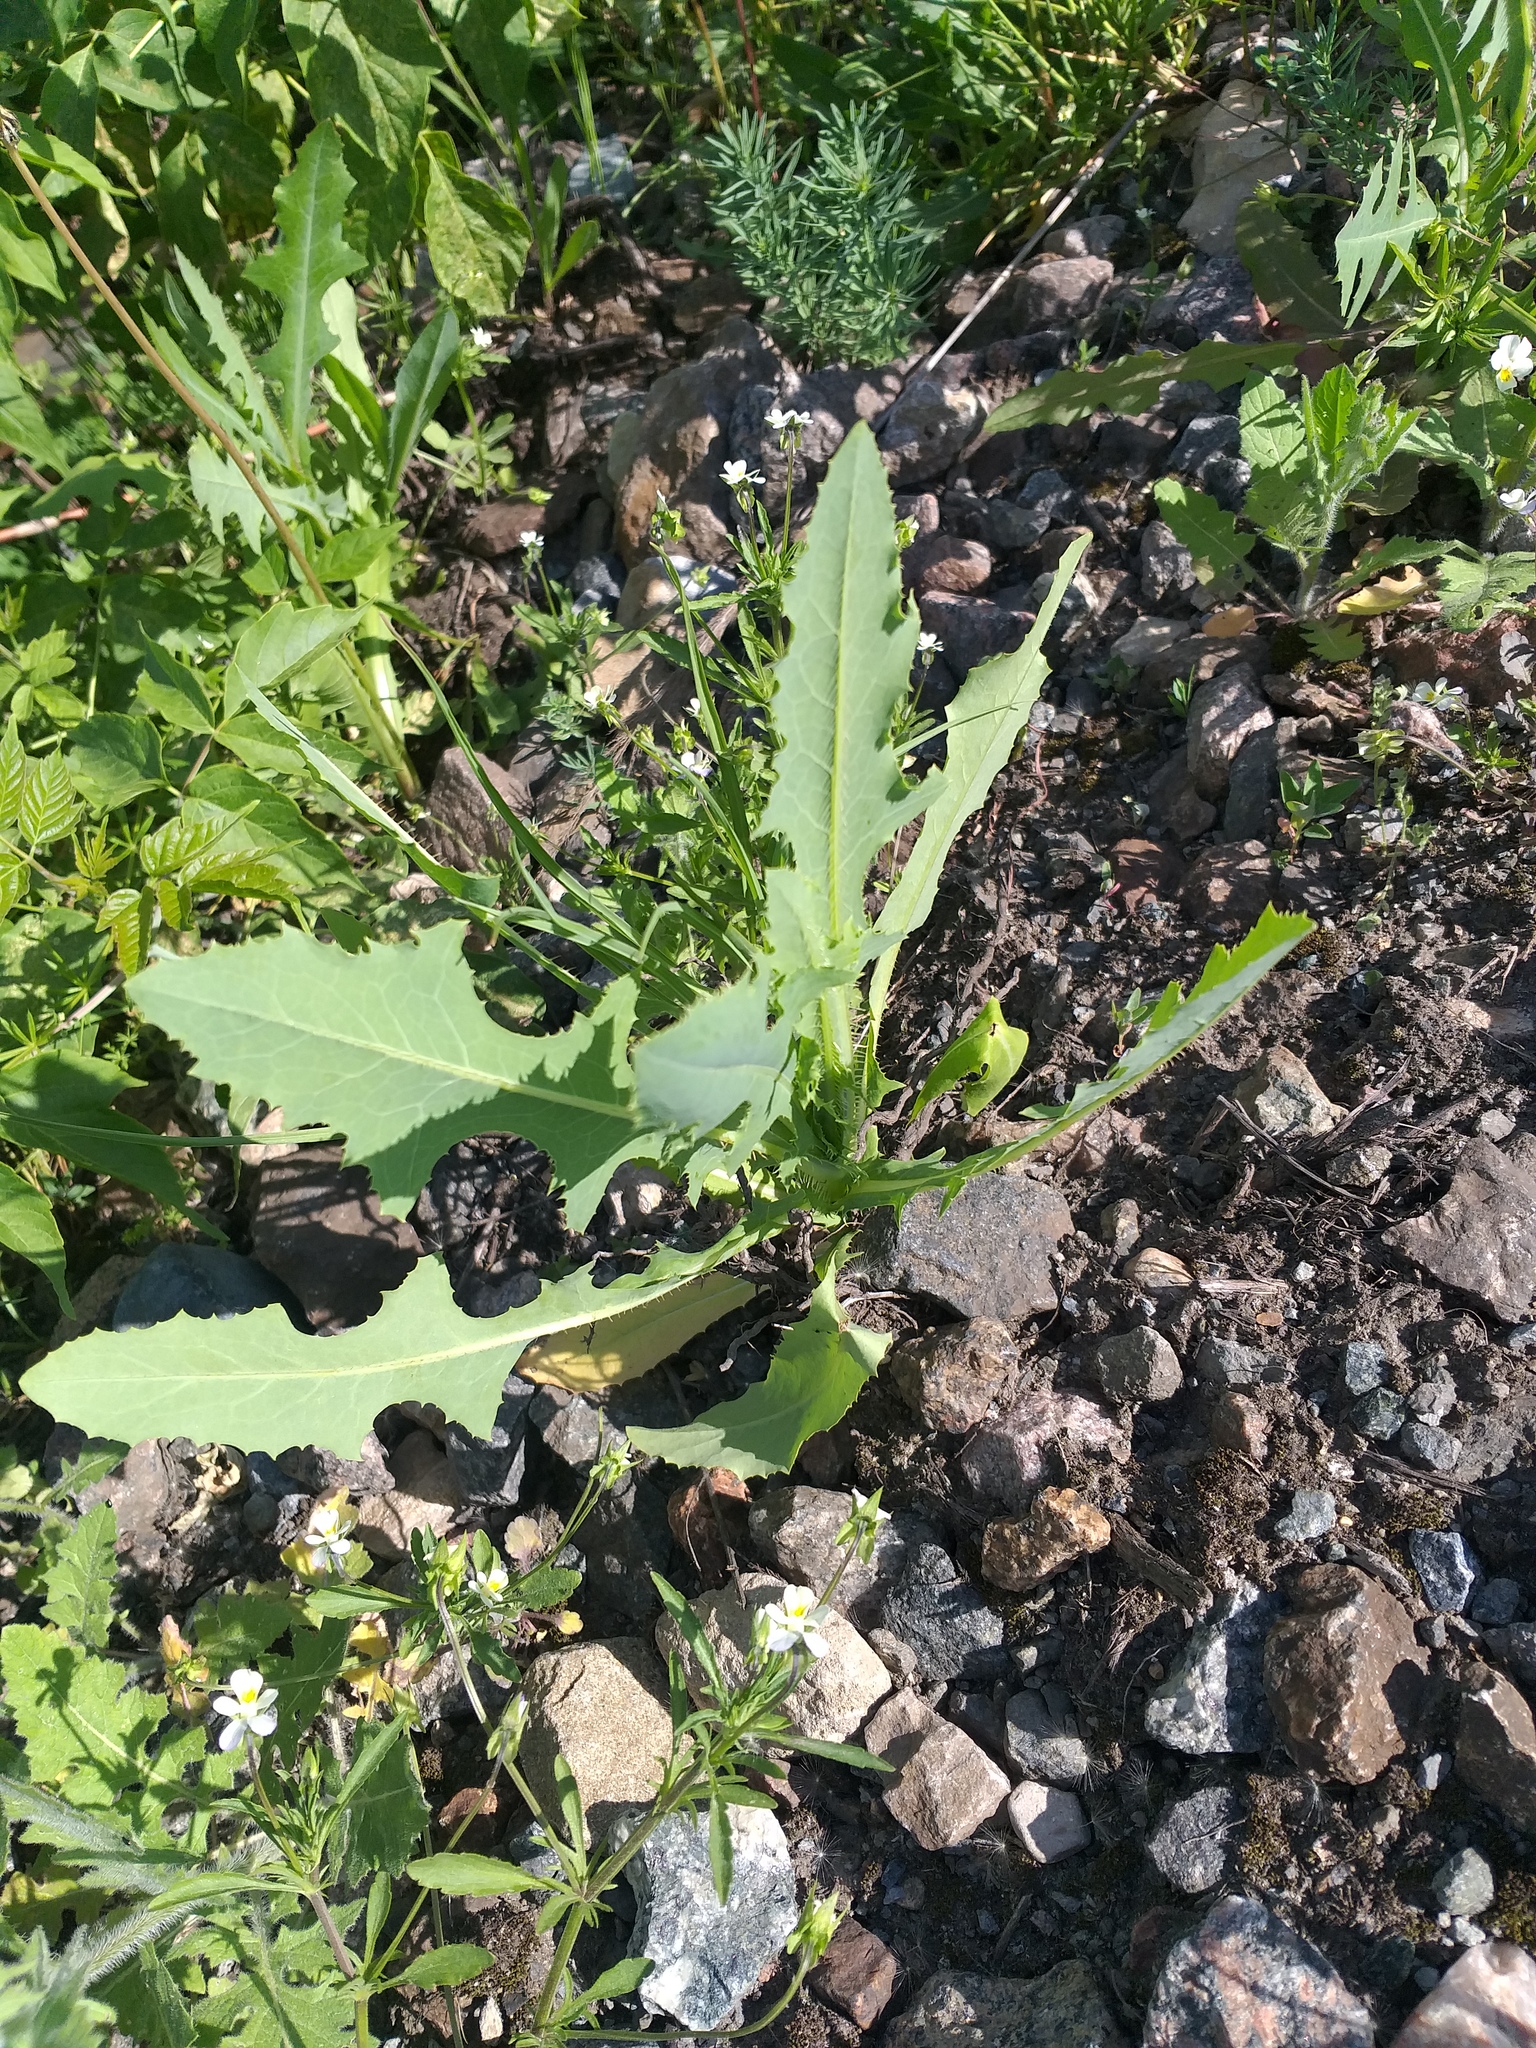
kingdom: Plantae
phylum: Tracheophyta
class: Magnoliopsida
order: Asterales
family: Asteraceae
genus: Lactuca
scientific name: Lactuca serriola
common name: Prickly lettuce
